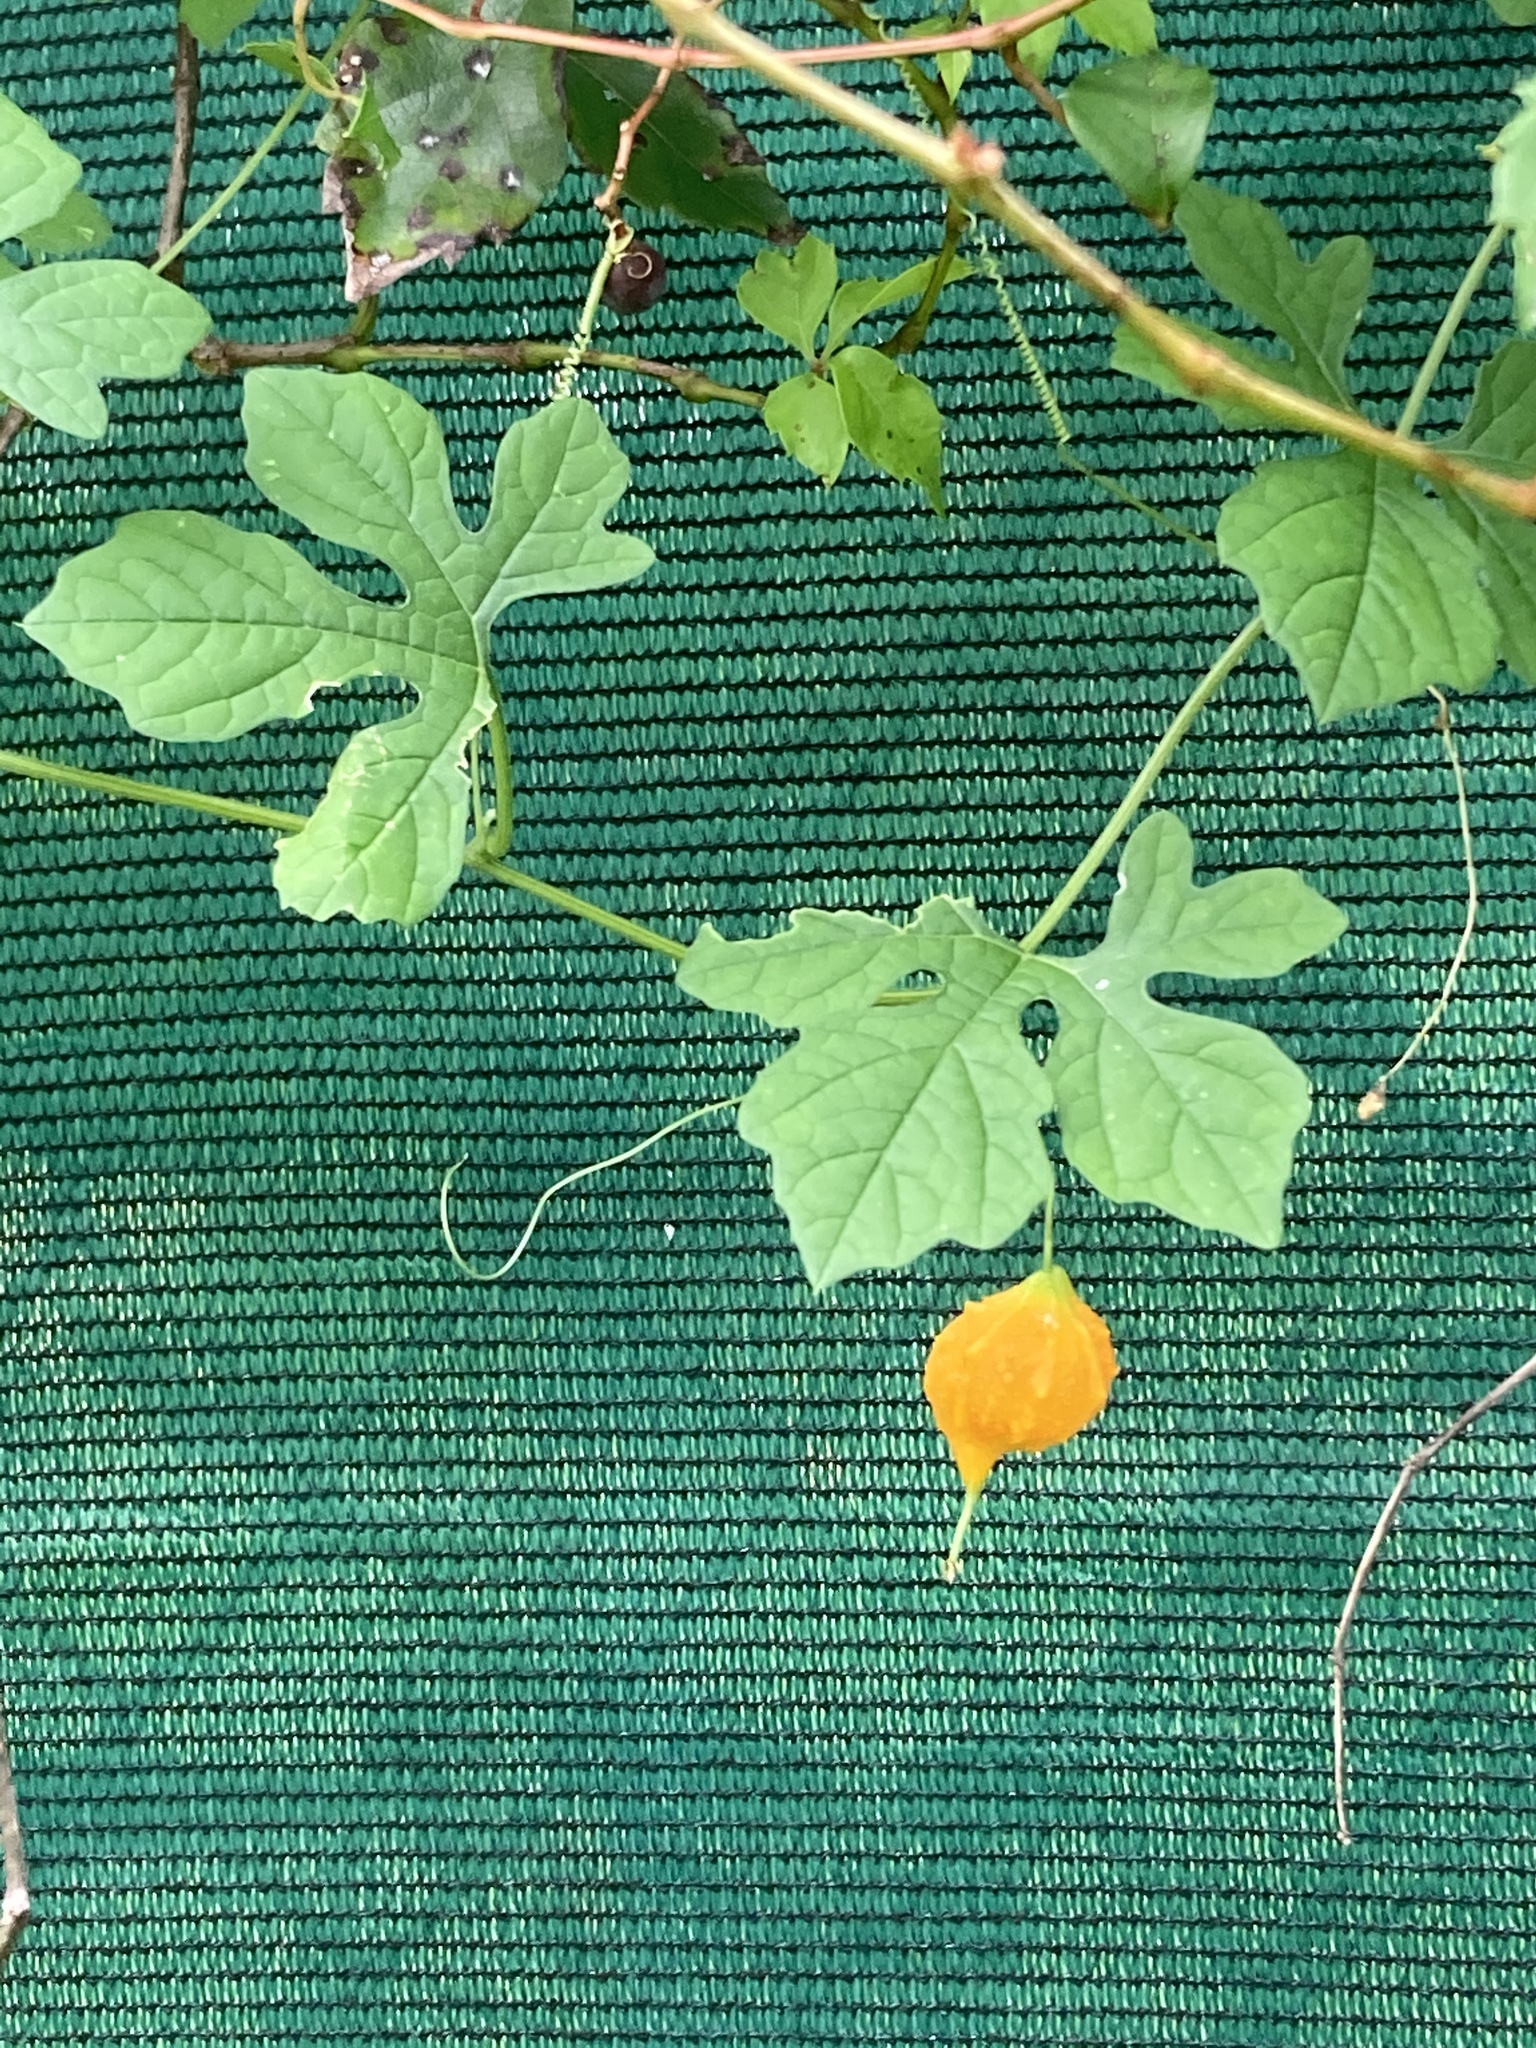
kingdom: Plantae
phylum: Tracheophyta
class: Magnoliopsida
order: Cucurbitales
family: Cucurbitaceae
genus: Momordica
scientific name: Momordica charantia
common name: Balsampear
